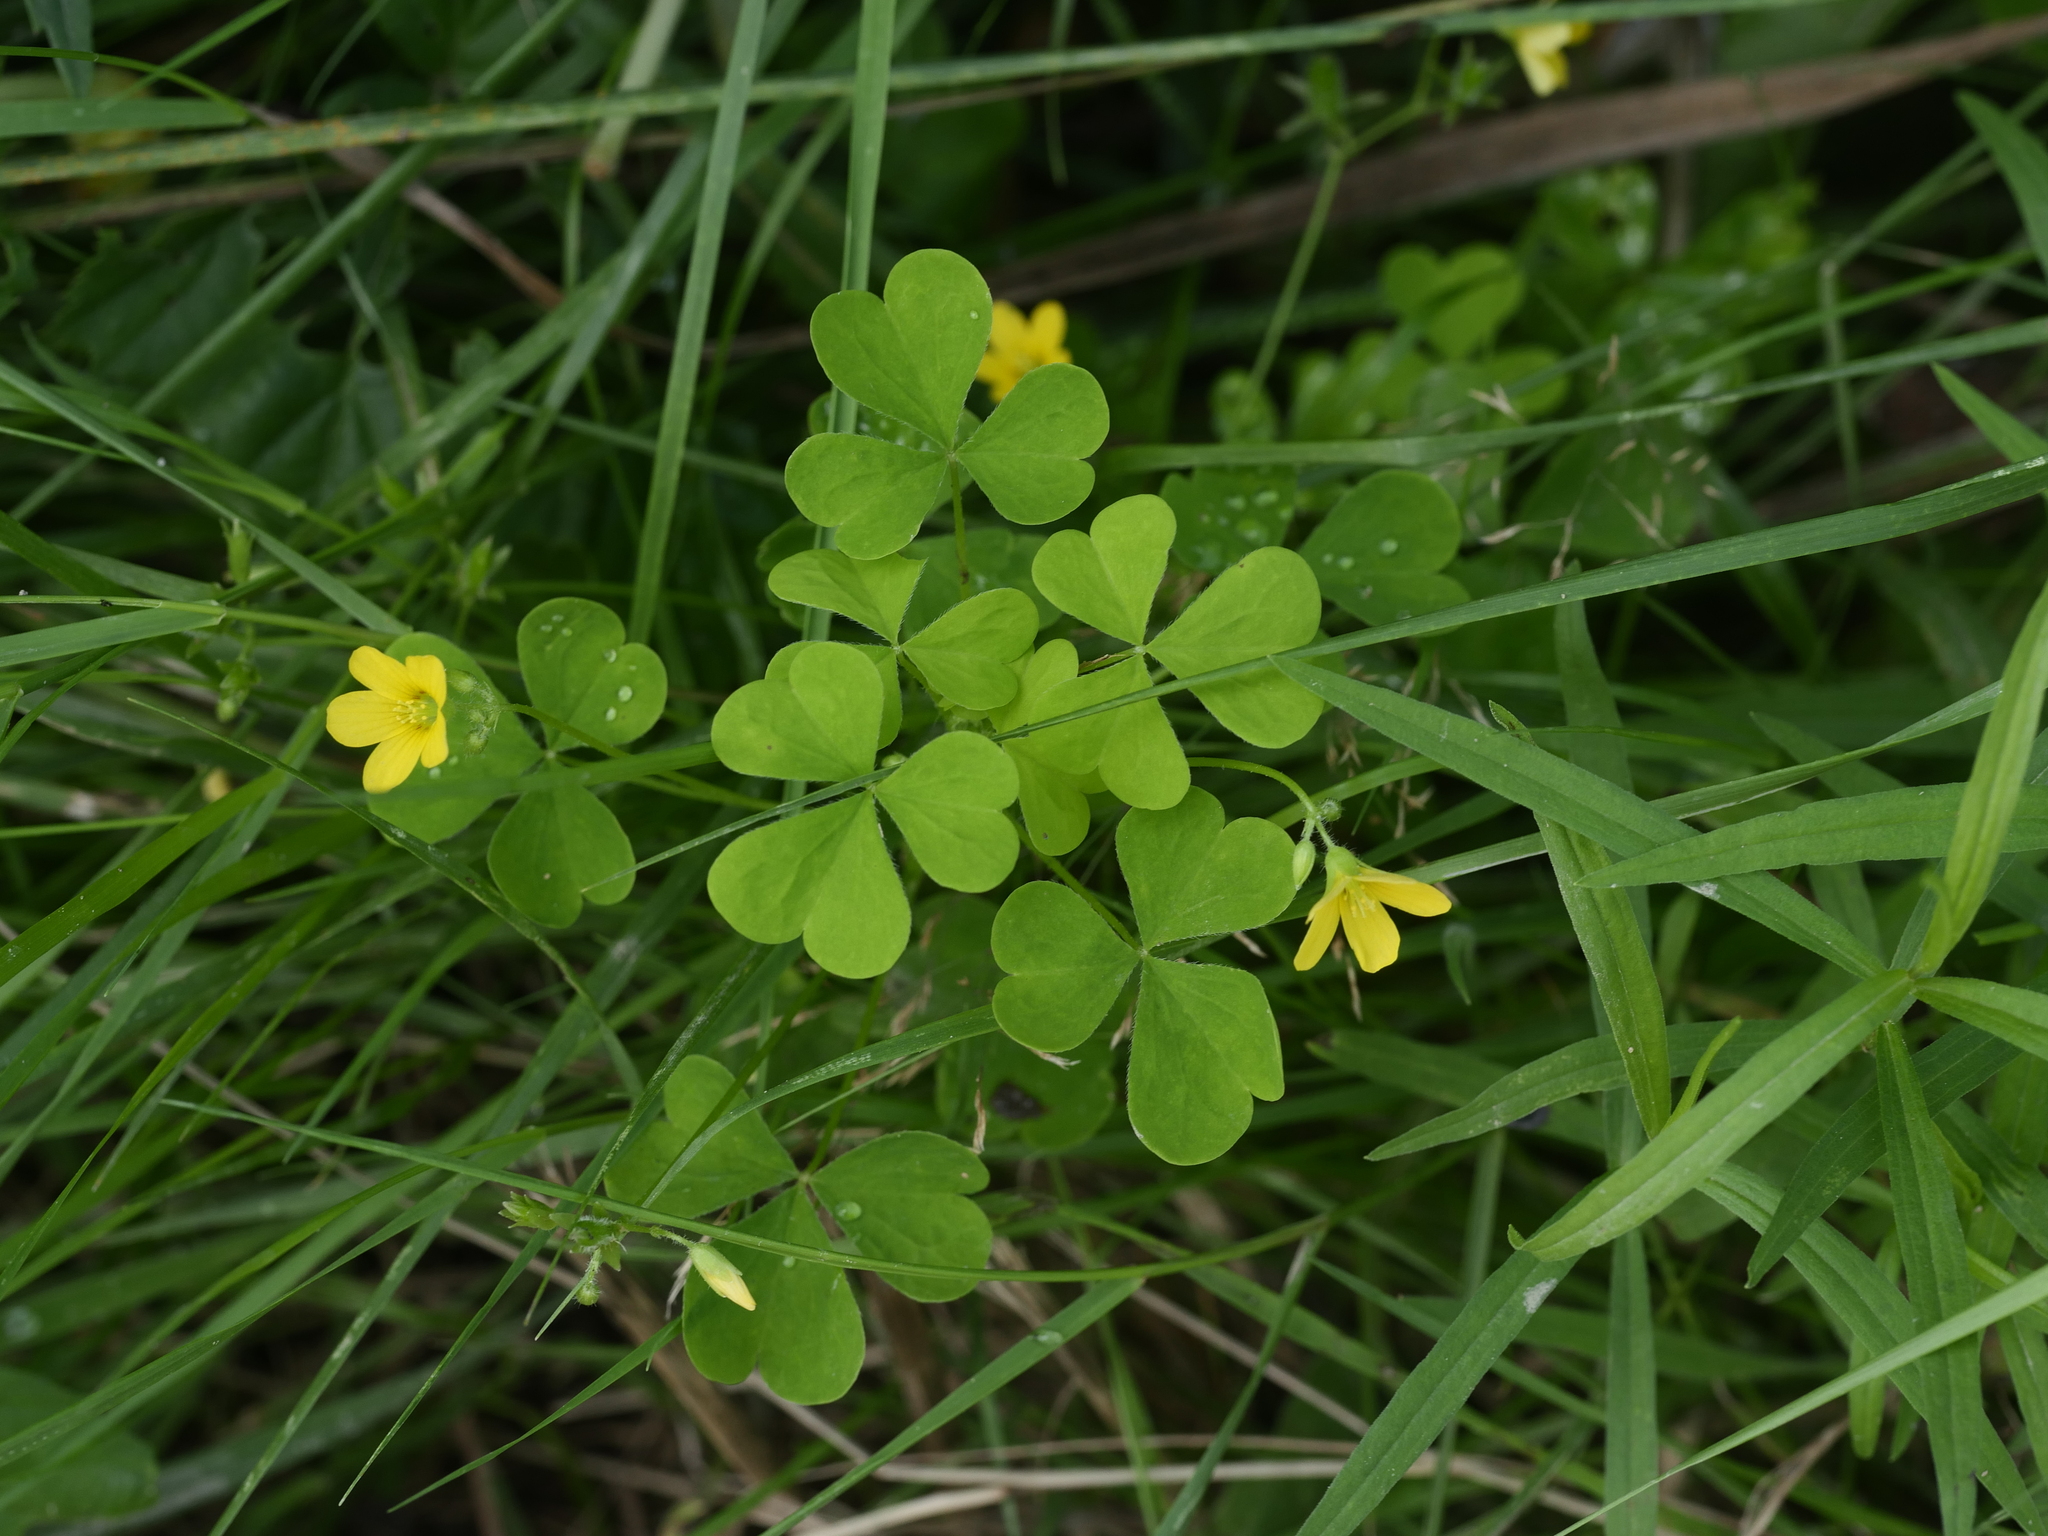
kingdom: Plantae
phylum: Tracheophyta
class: Magnoliopsida
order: Oxalidales
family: Oxalidaceae
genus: Oxalis
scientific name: Oxalis stricta
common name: Upright yellow-sorrel
